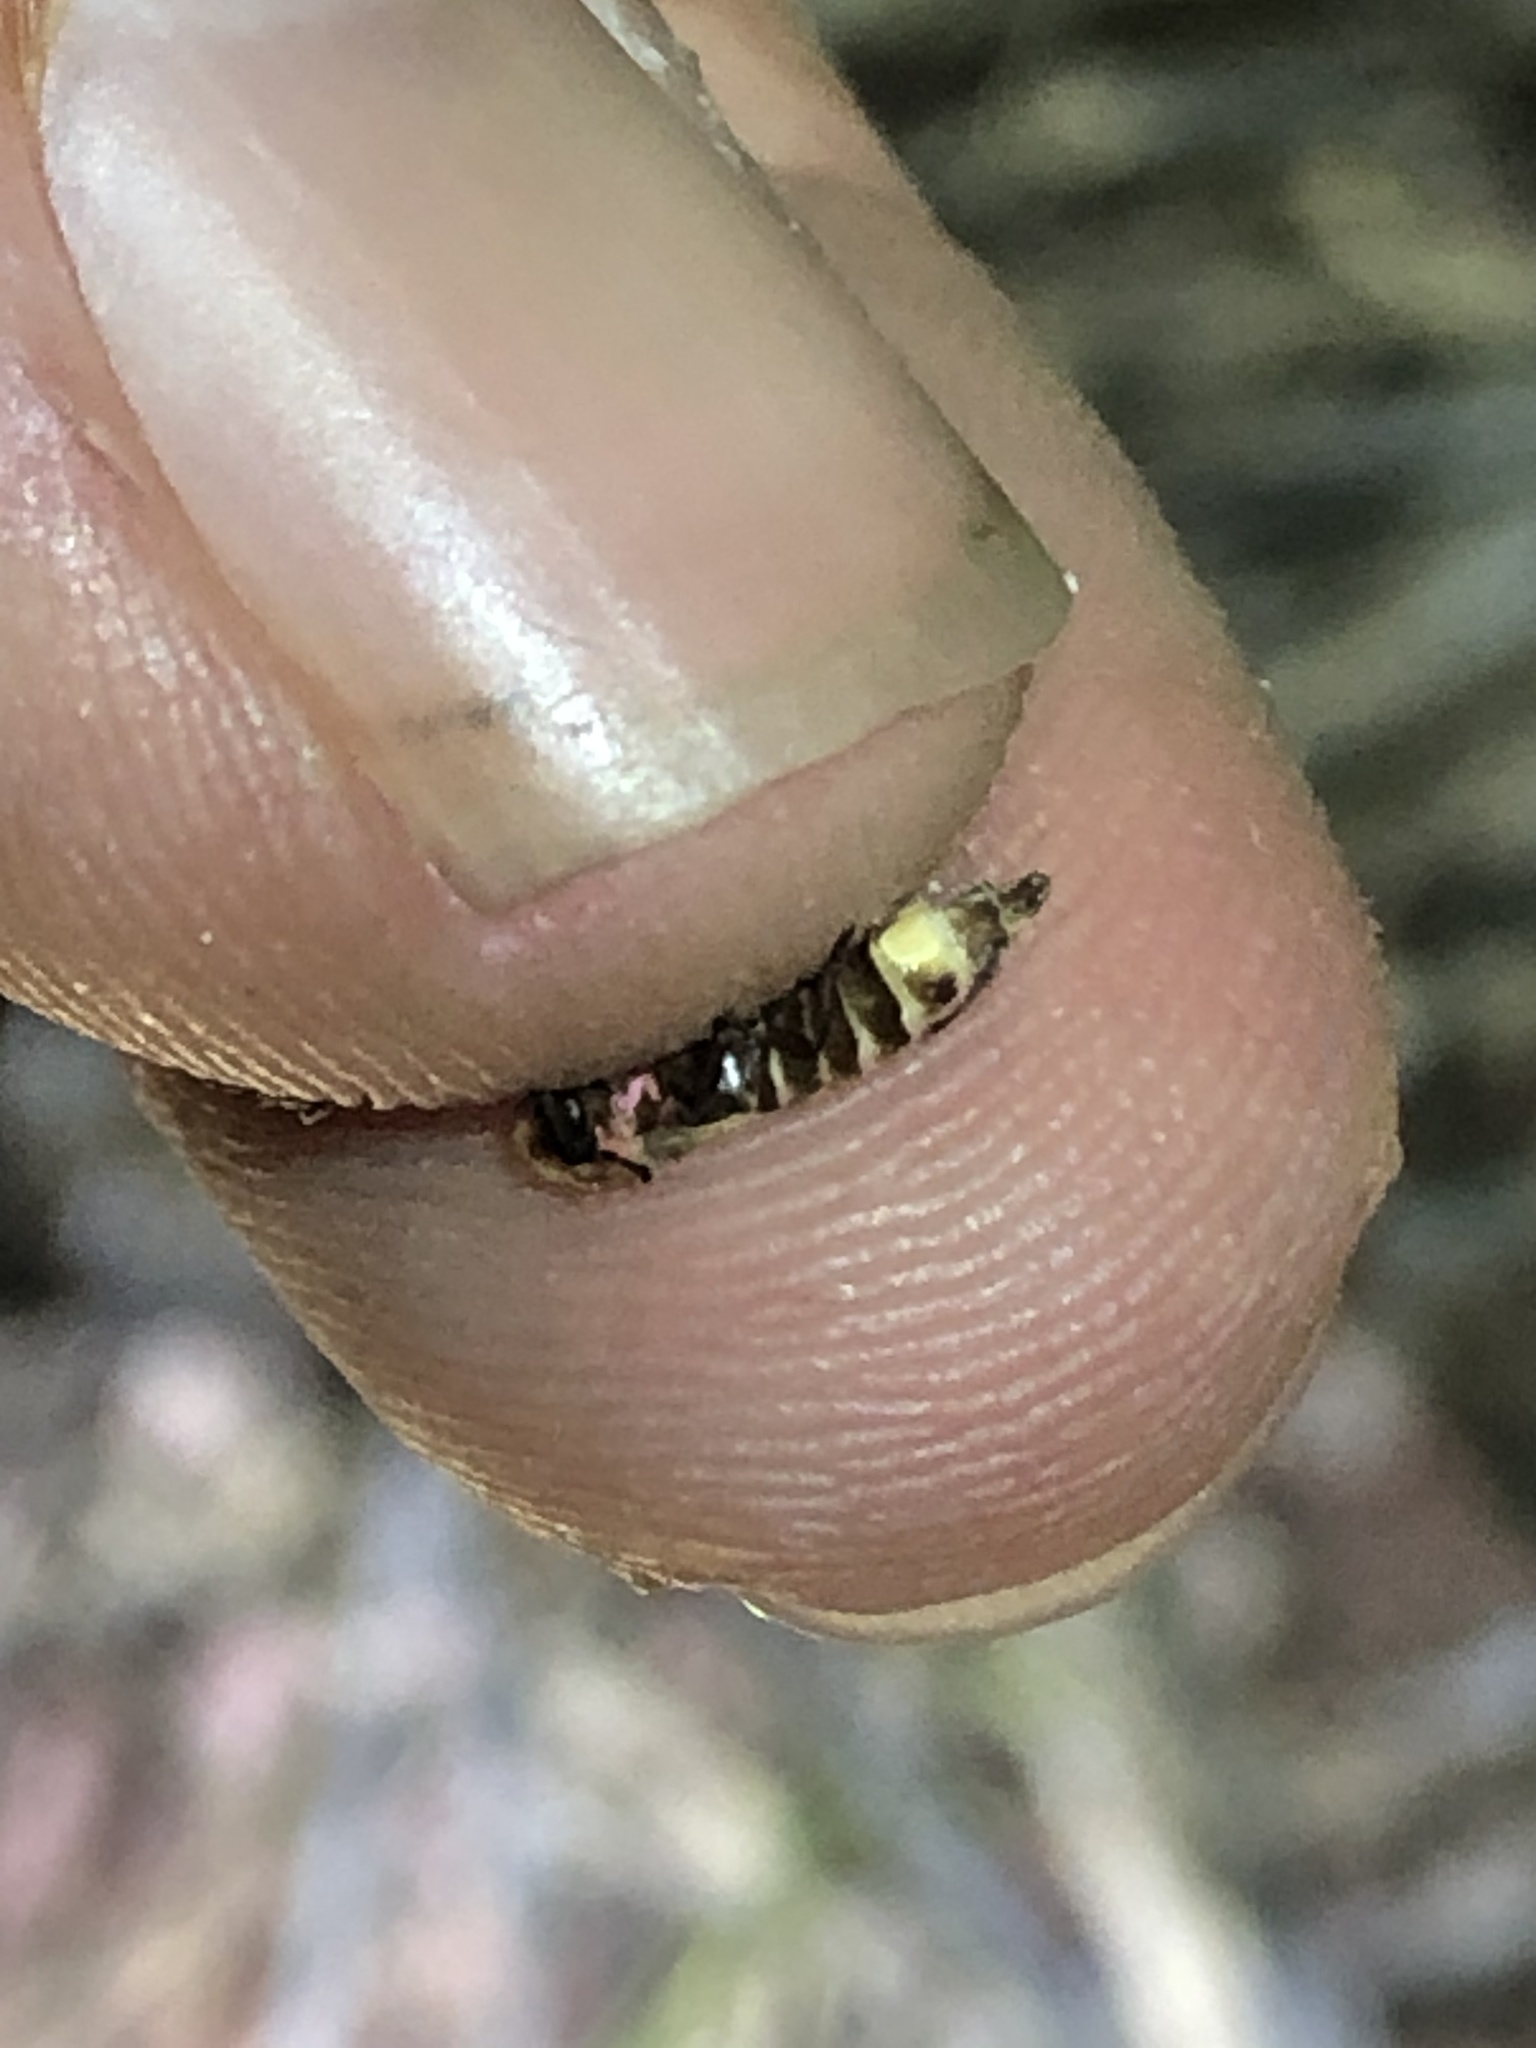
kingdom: Animalia
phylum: Arthropoda
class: Insecta
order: Coleoptera
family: Lampyridae
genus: Photinus
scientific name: Photinus knulli
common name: Fall southwest firefly
